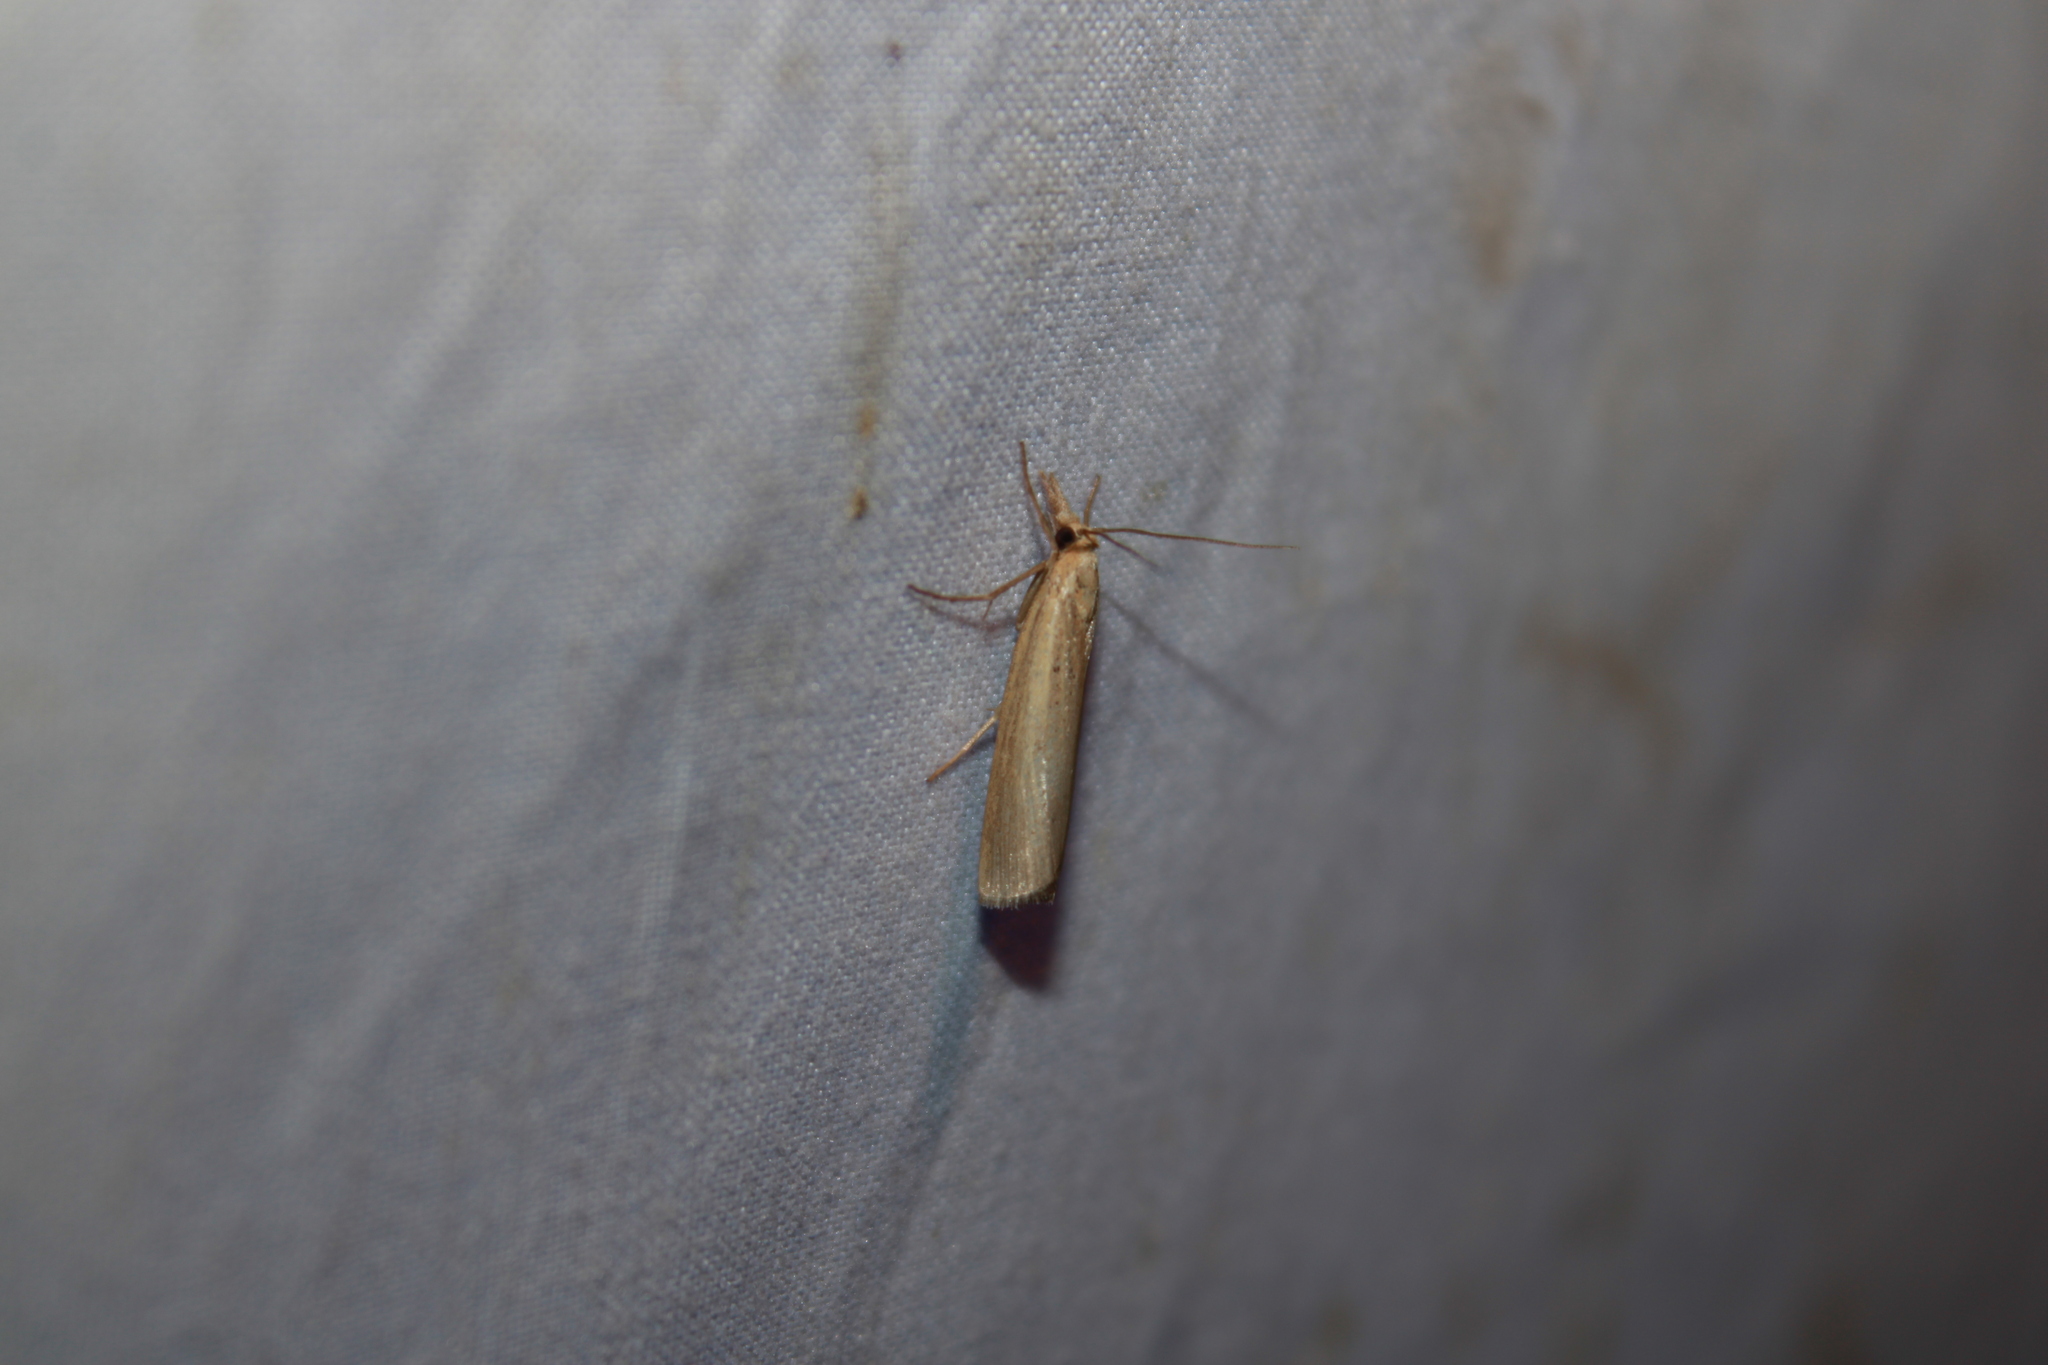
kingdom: Animalia
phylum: Arthropoda
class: Insecta
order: Lepidoptera
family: Crambidae
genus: Pediasia
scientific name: Pediasia trisecta
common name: Sod webworm moth
